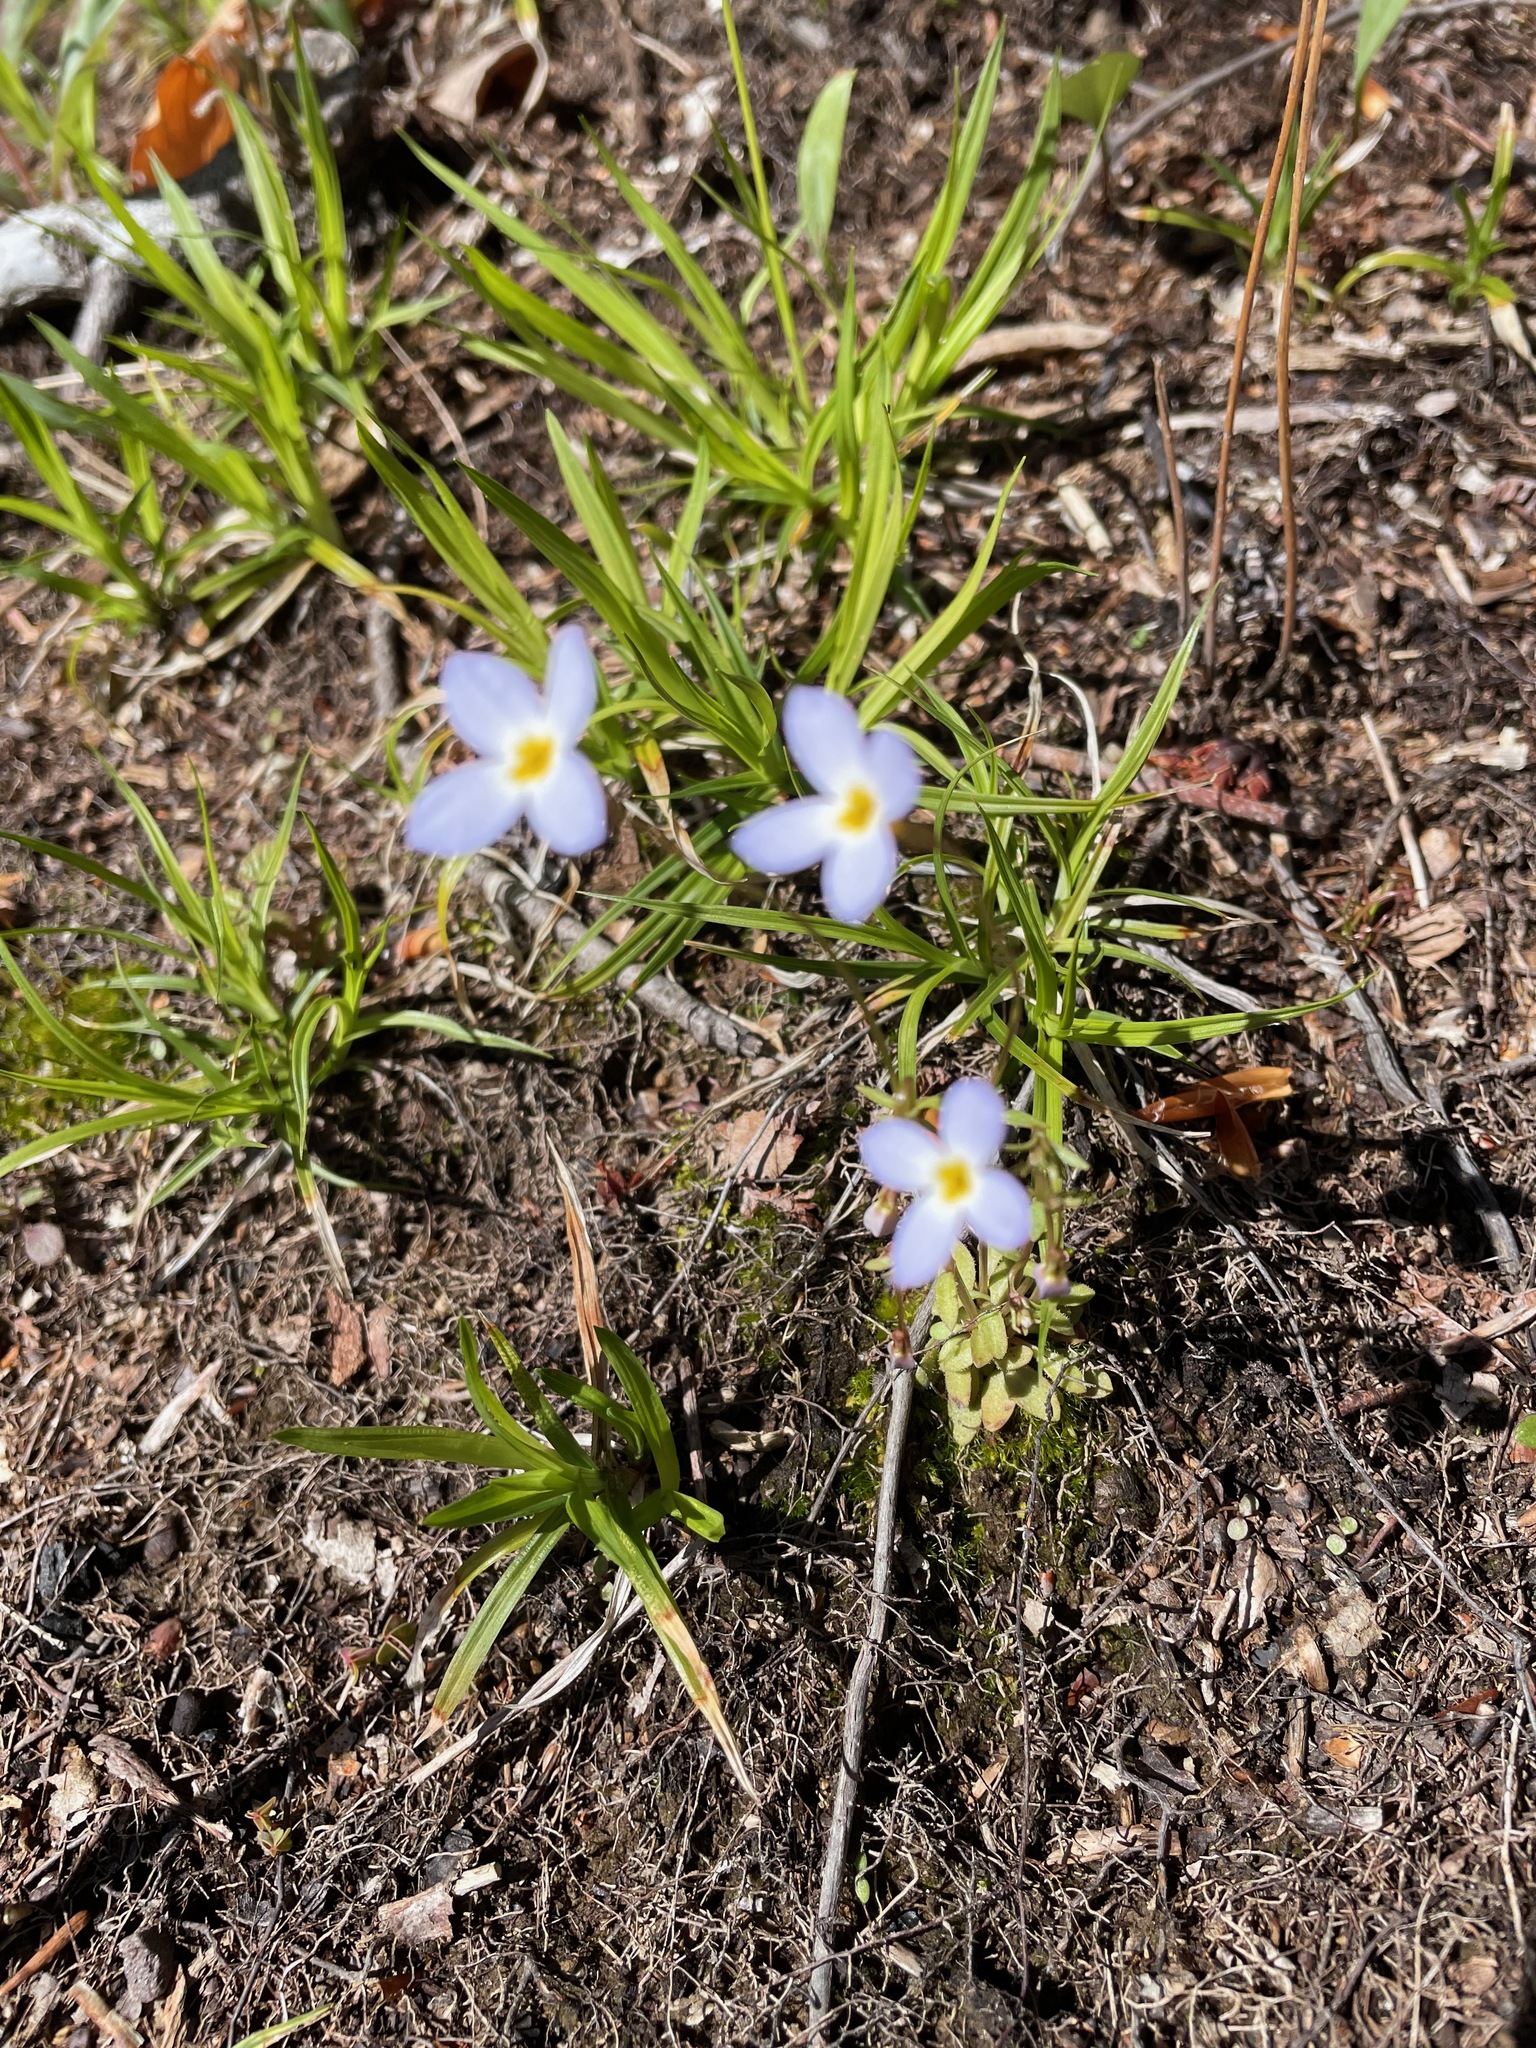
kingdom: Plantae
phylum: Tracheophyta
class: Magnoliopsida
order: Gentianales
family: Rubiaceae
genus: Houstonia
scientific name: Houstonia caerulea
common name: Bluets
